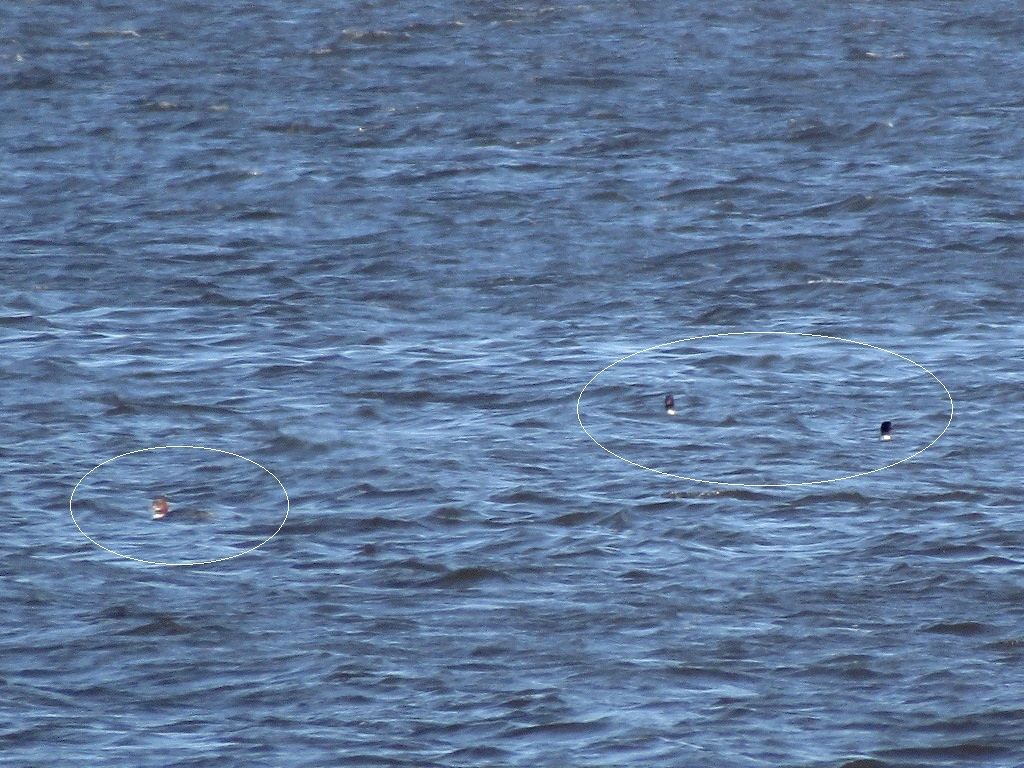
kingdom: Animalia
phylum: Chordata
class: Aves
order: Anseriformes
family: Anatidae
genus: Mergus
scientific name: Mergus merganser
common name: Common merganser
